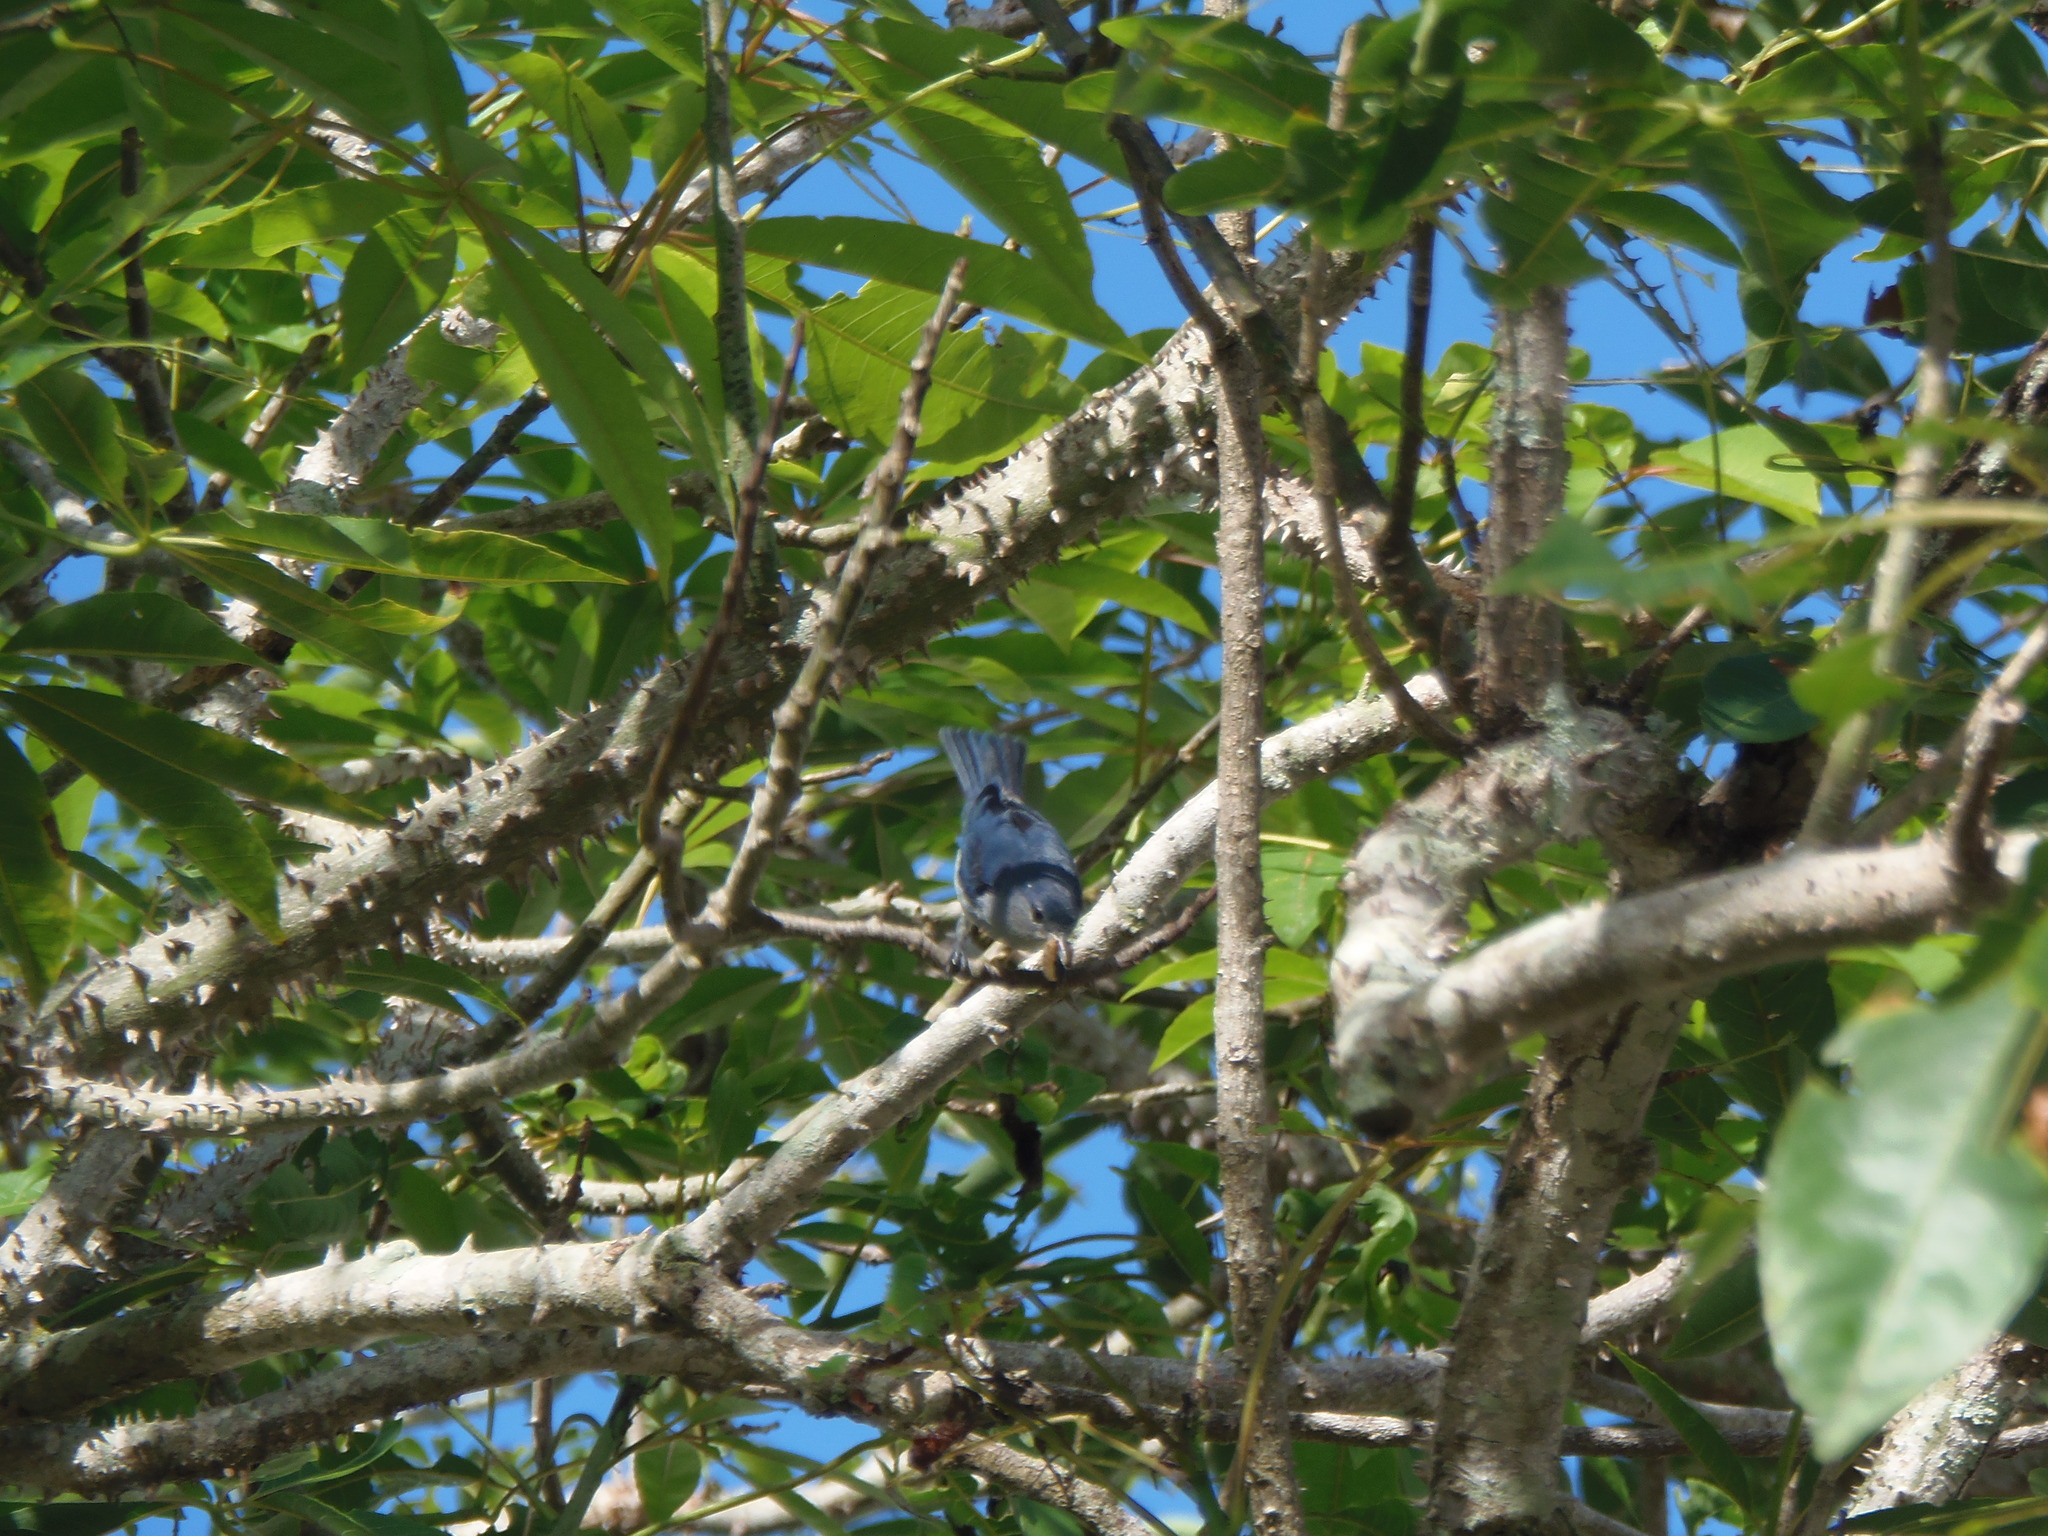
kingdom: Animalia
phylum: Chordata
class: Aves
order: Passeriformes
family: Thraupidae
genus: Conirostrum
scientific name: Conirostrum speciosum
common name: Chestnut-vented conebill
